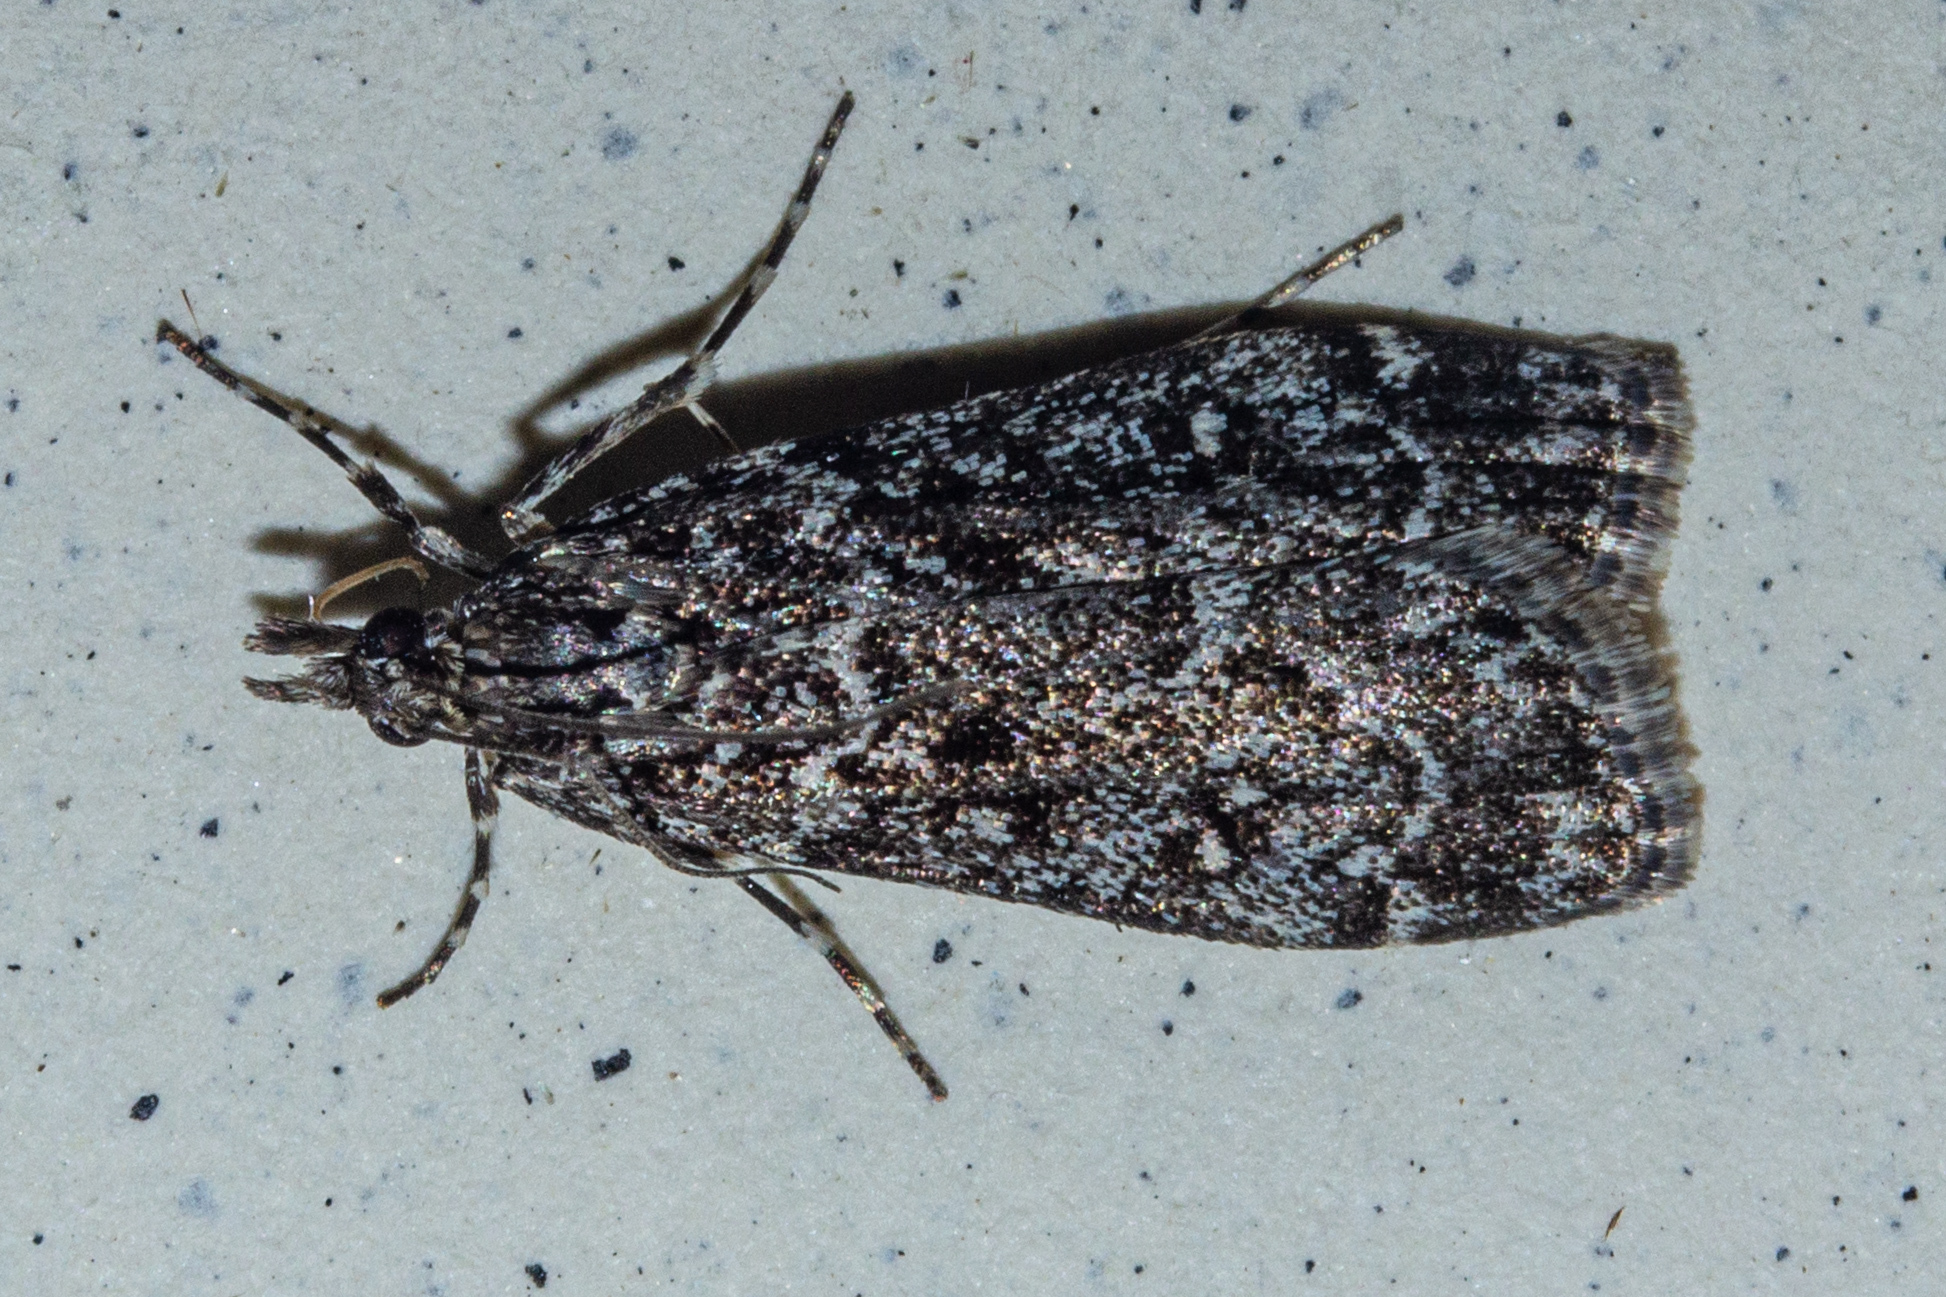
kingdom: Animalia
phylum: Arthropoda
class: Insecta
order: Lepidoptera
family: Crambidae
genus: Eudonia
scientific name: Eudonia philerga
